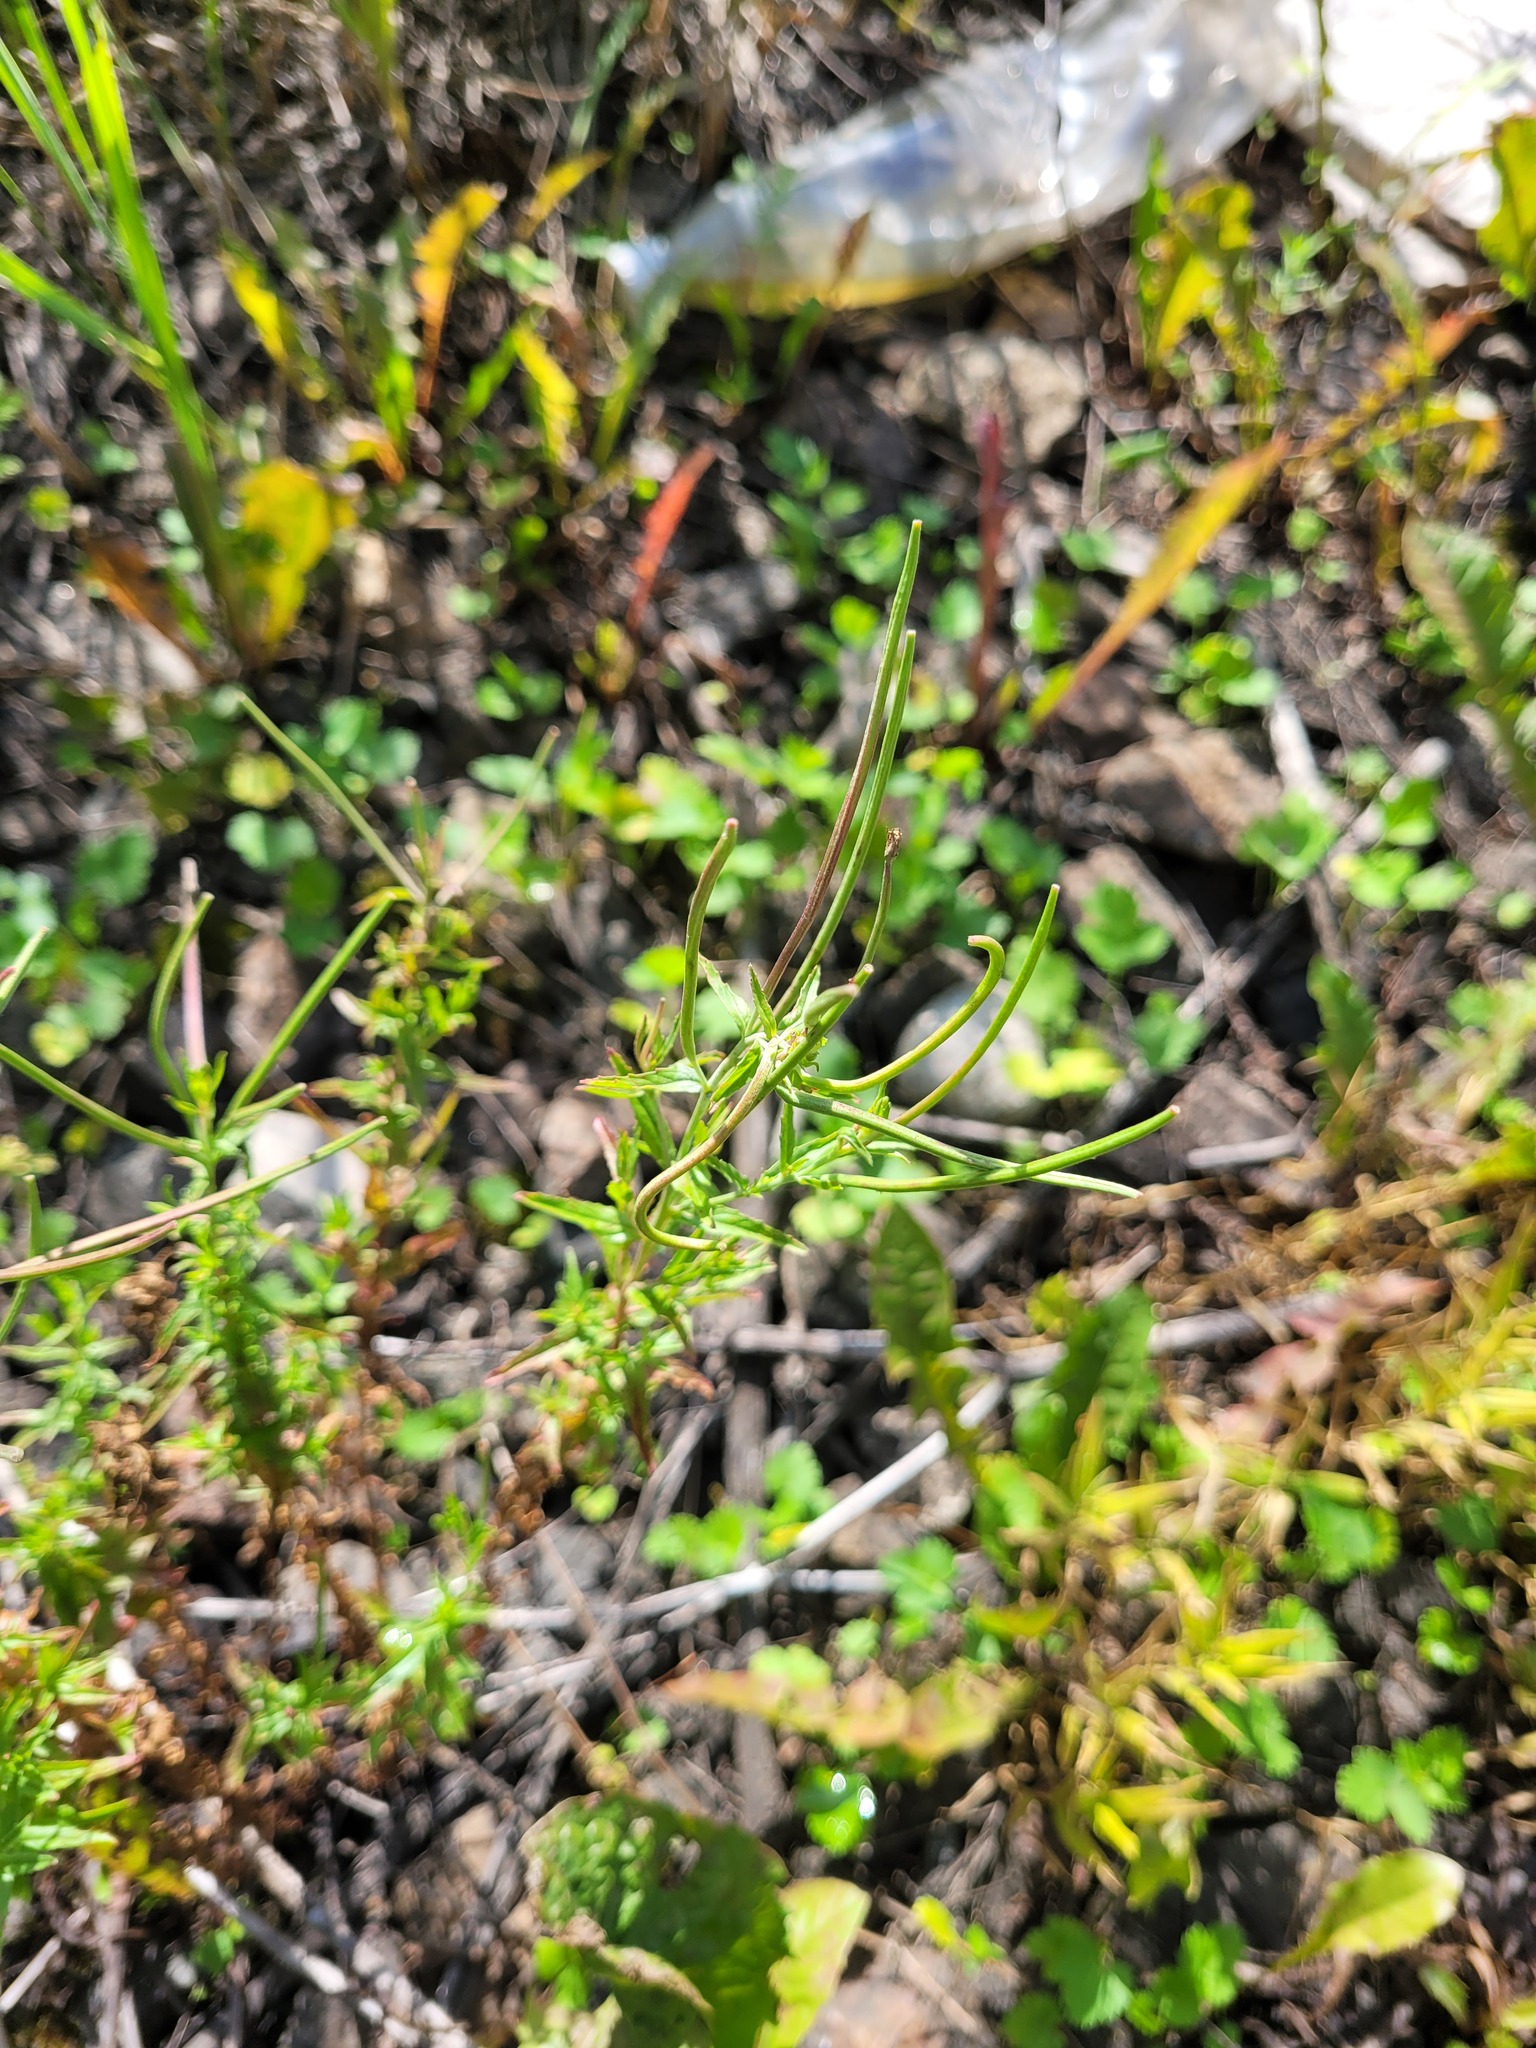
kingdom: Plantae
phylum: Tracheophyta
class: Magnoliopsida
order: Myrtales
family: Onagraceae
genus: Epilobium
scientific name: Epilobium tetragonum
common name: Square-stemmed willowherb
